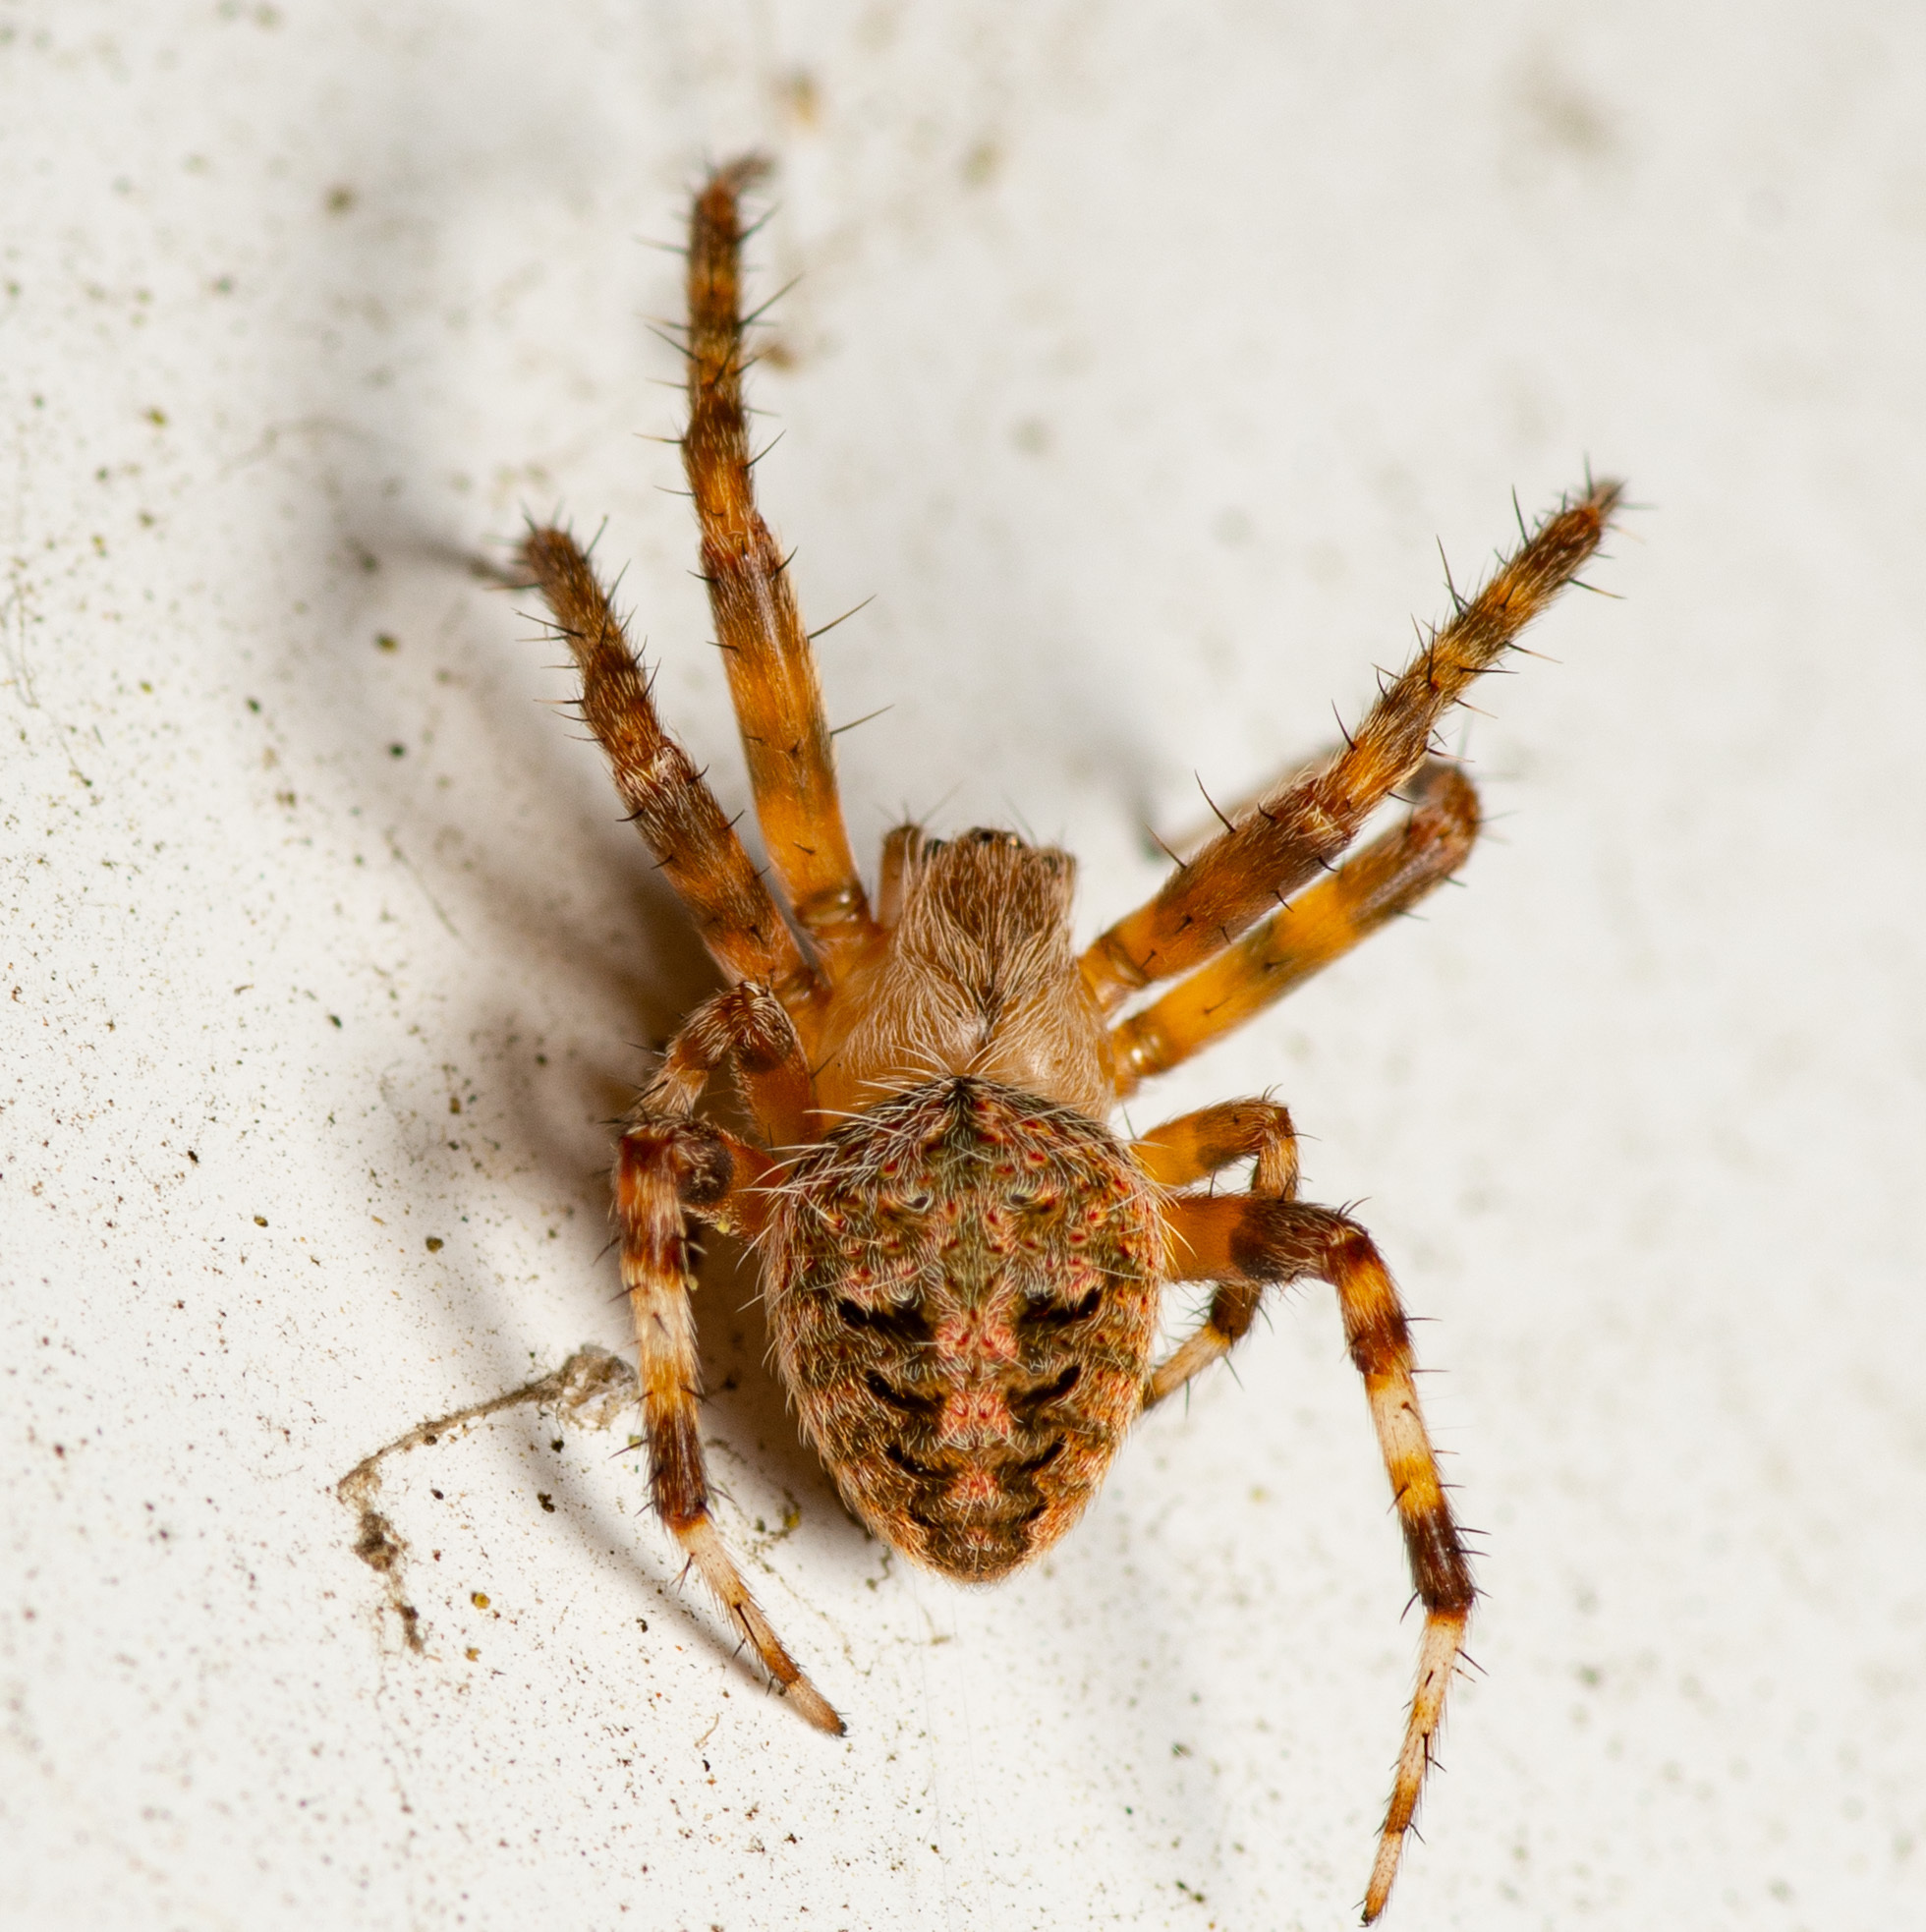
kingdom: Animalia
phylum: Arthropoda
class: Arachnida
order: Araneae
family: Araneidae
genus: Neoscona
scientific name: Neoscona crucifera
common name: Spotted orbweaver
